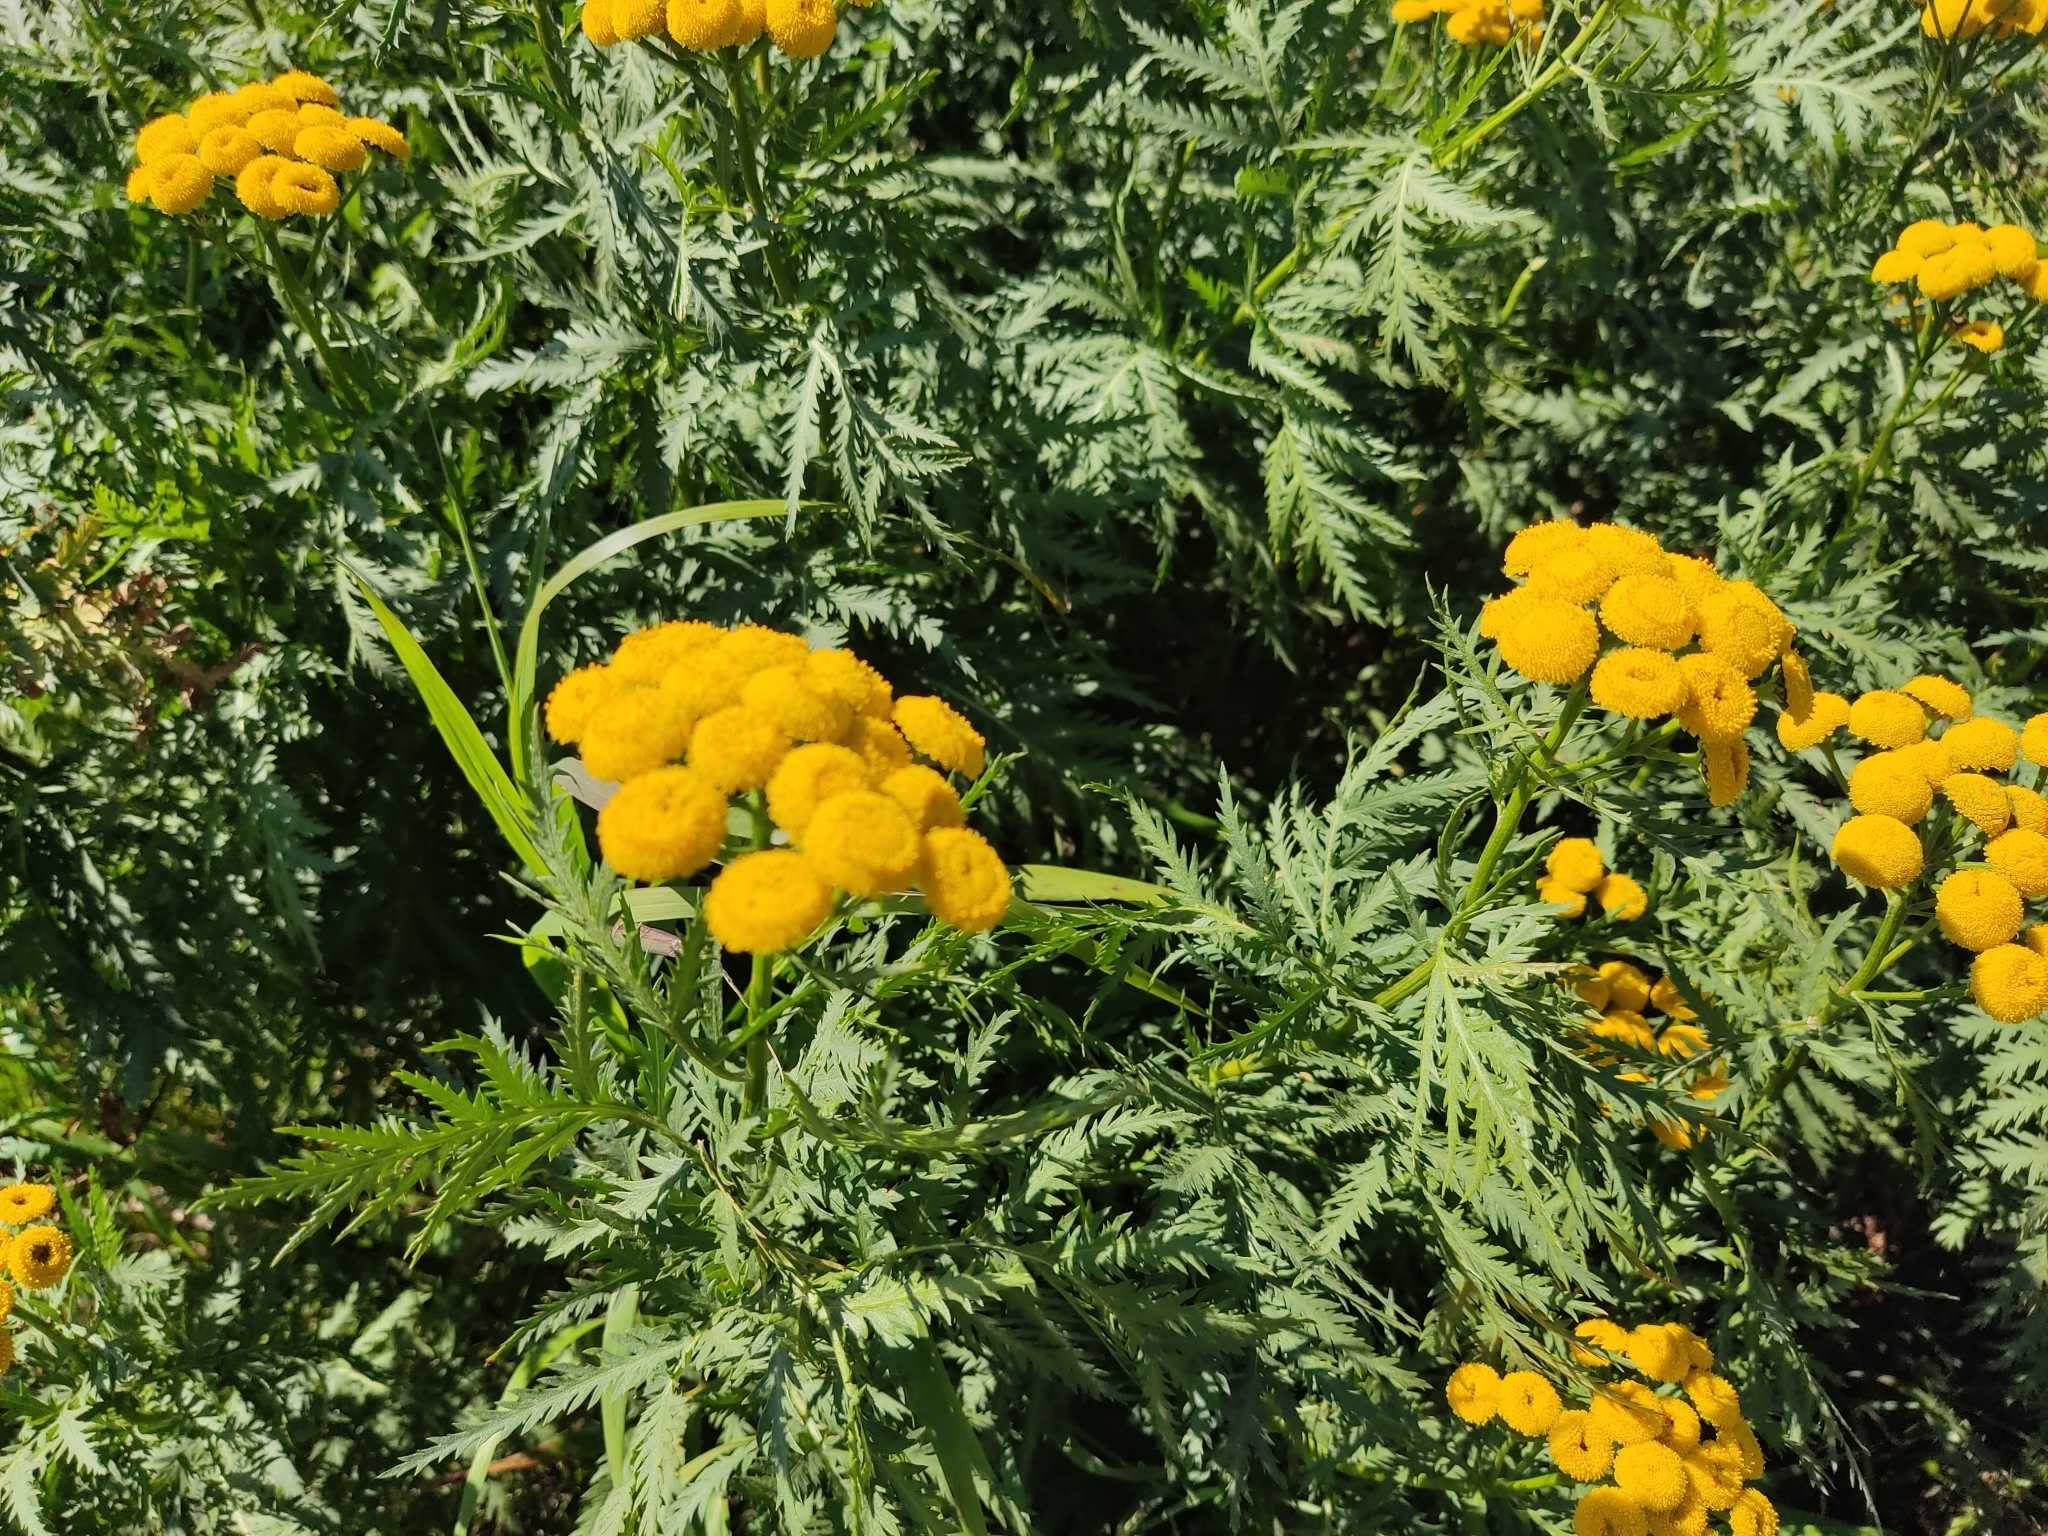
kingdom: Plantae
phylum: Tracheophyta
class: Magnoliopsida
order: Asterales
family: Asteraceae
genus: Tanacetum
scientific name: Tanacetum vulgare
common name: Common tansy
